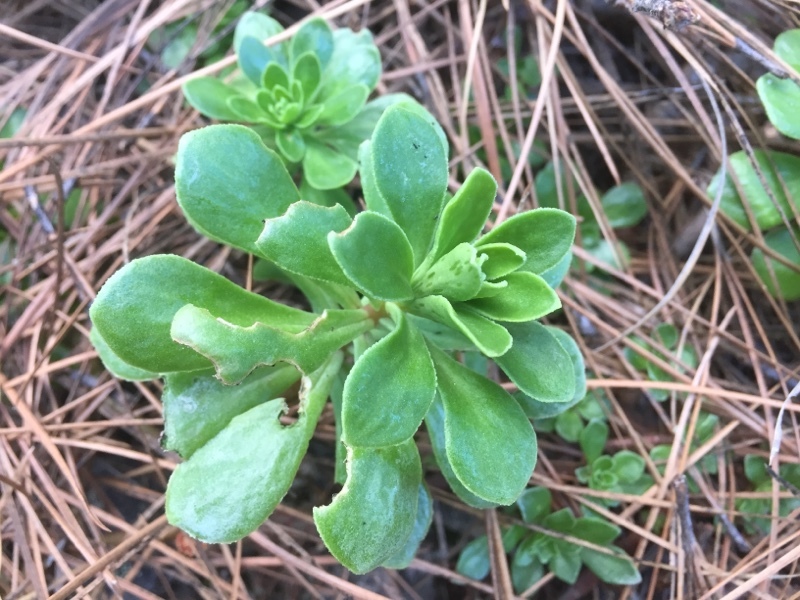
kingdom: Plantae
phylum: Tracheophyta
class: Magnoliopsida
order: Saxifragales
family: Crassulaceae
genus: Aeonium
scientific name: Aeonium spathulatum
